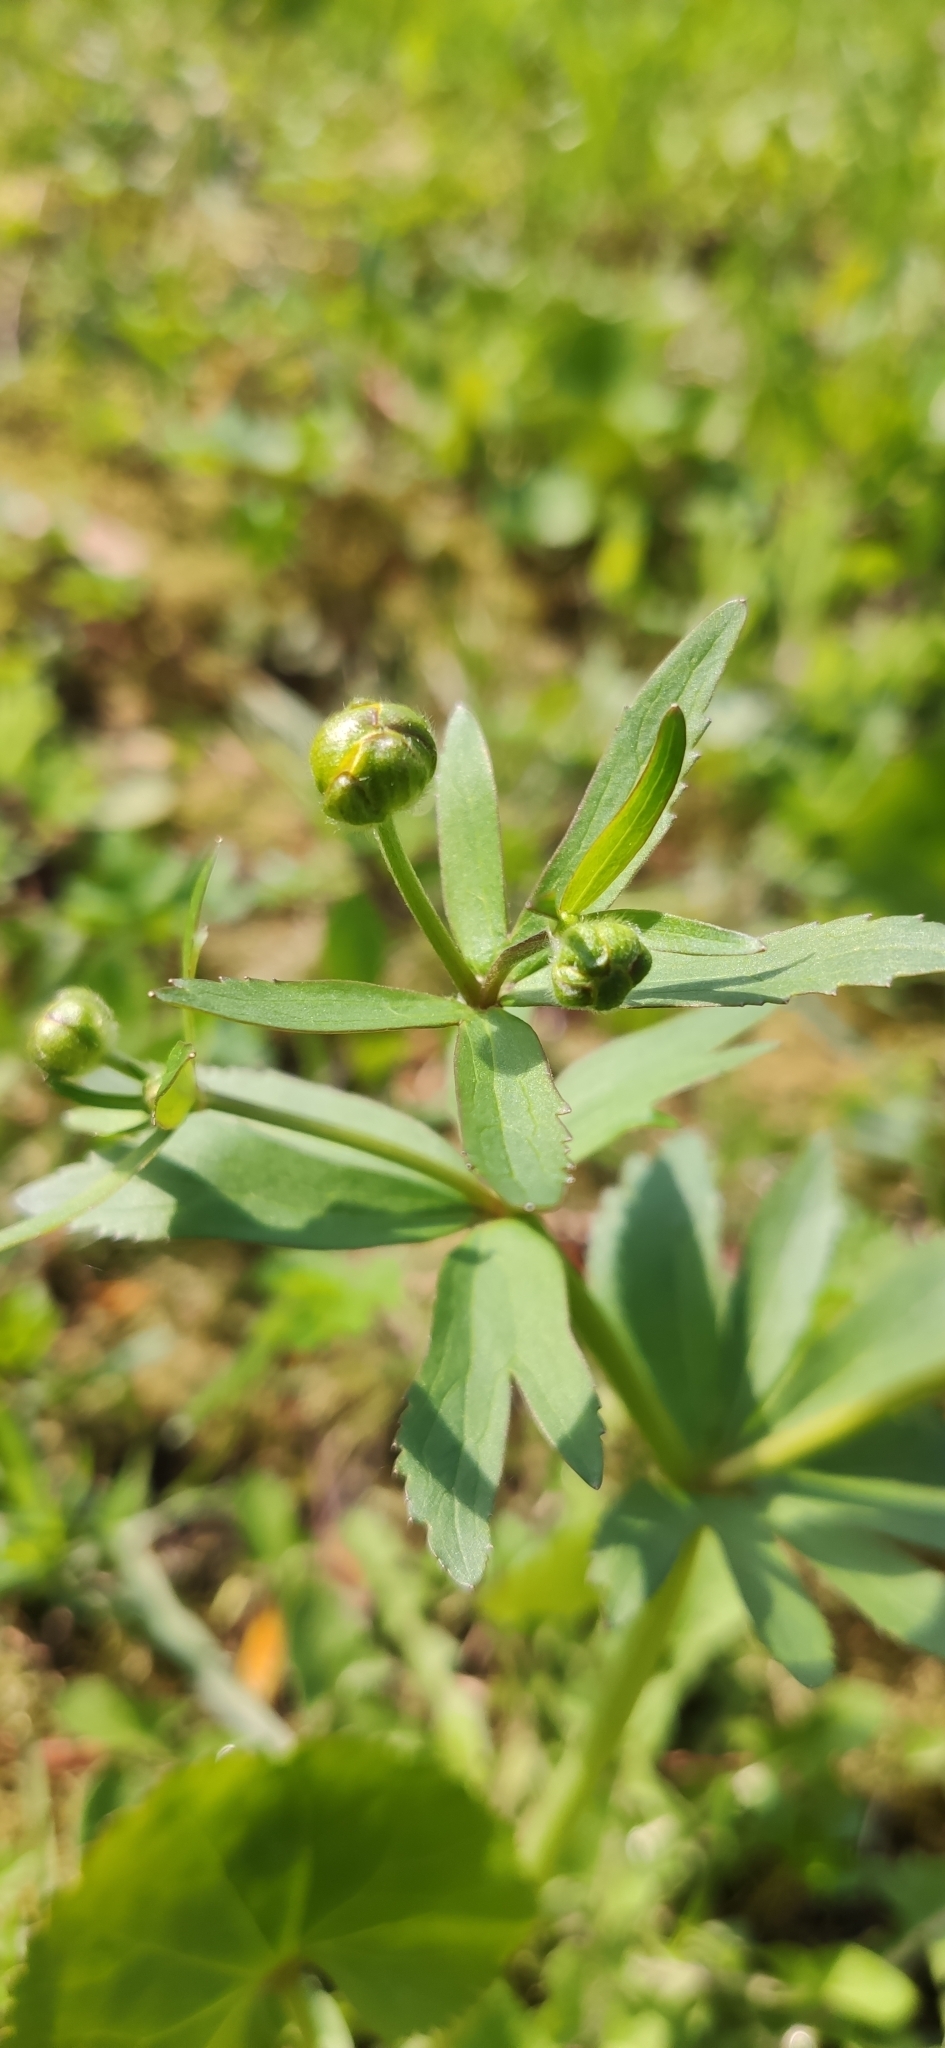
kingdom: Plantae
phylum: Tracheophyta
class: Magnoliopsida
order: Ranunculales
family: Ranunculaceae
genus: Ranunculus
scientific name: Ranunculus cassubicus
